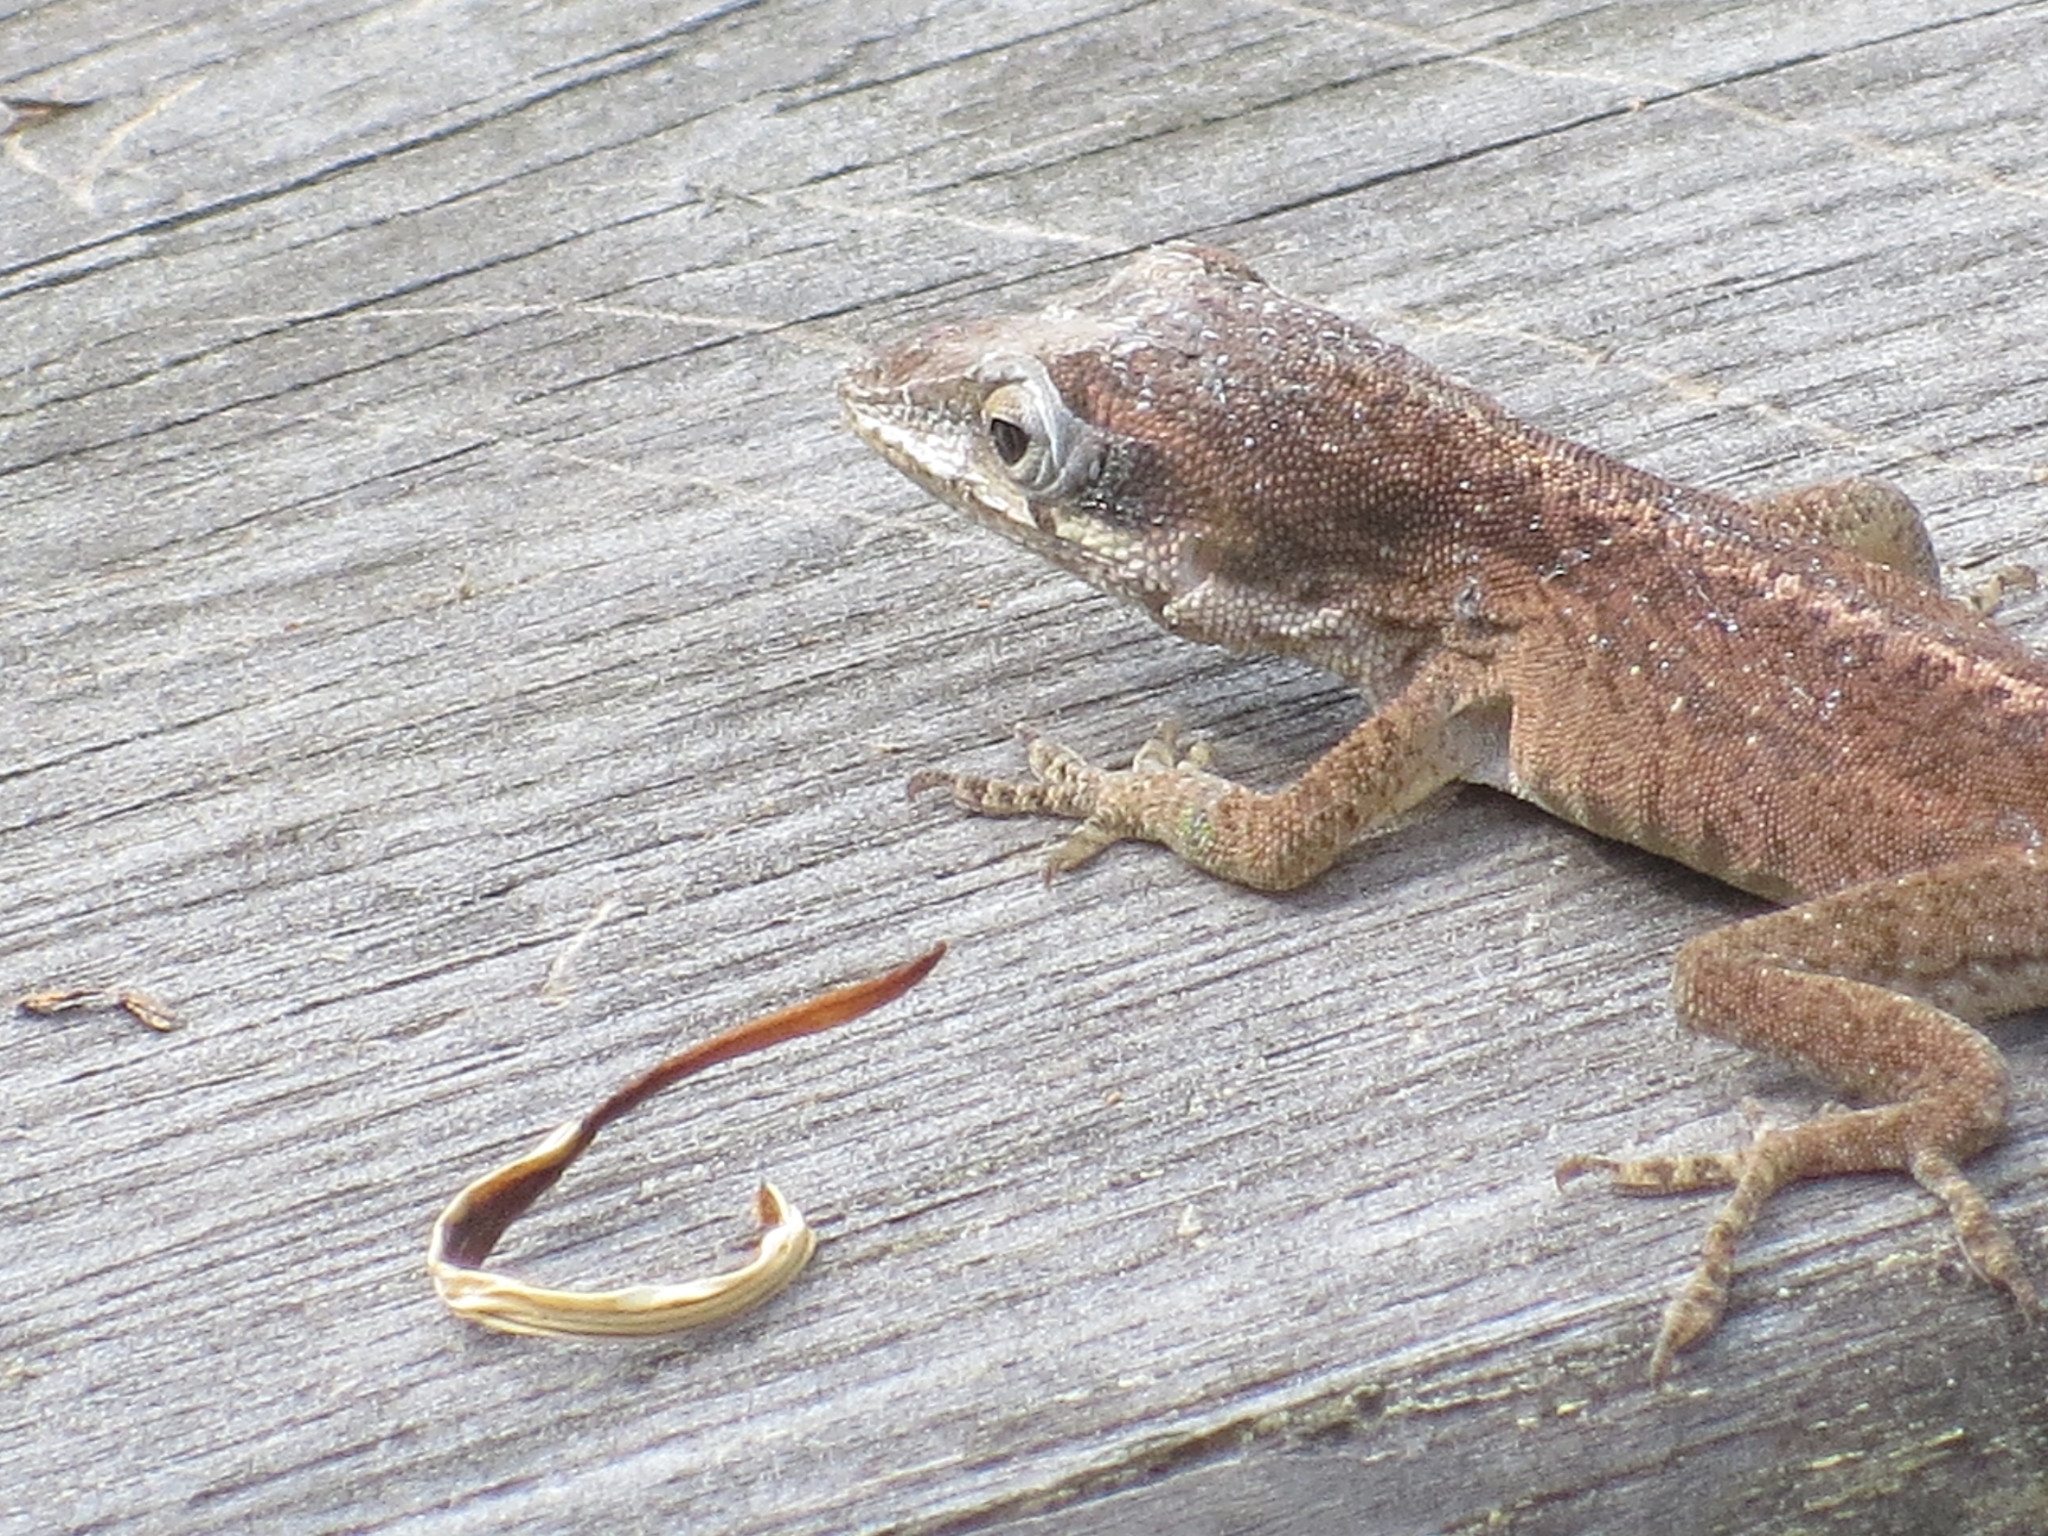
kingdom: Animalia
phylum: Chordata
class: Squamata
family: Dactyloidae
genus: Anolis
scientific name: Anolis carolinensis
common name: Green anole
